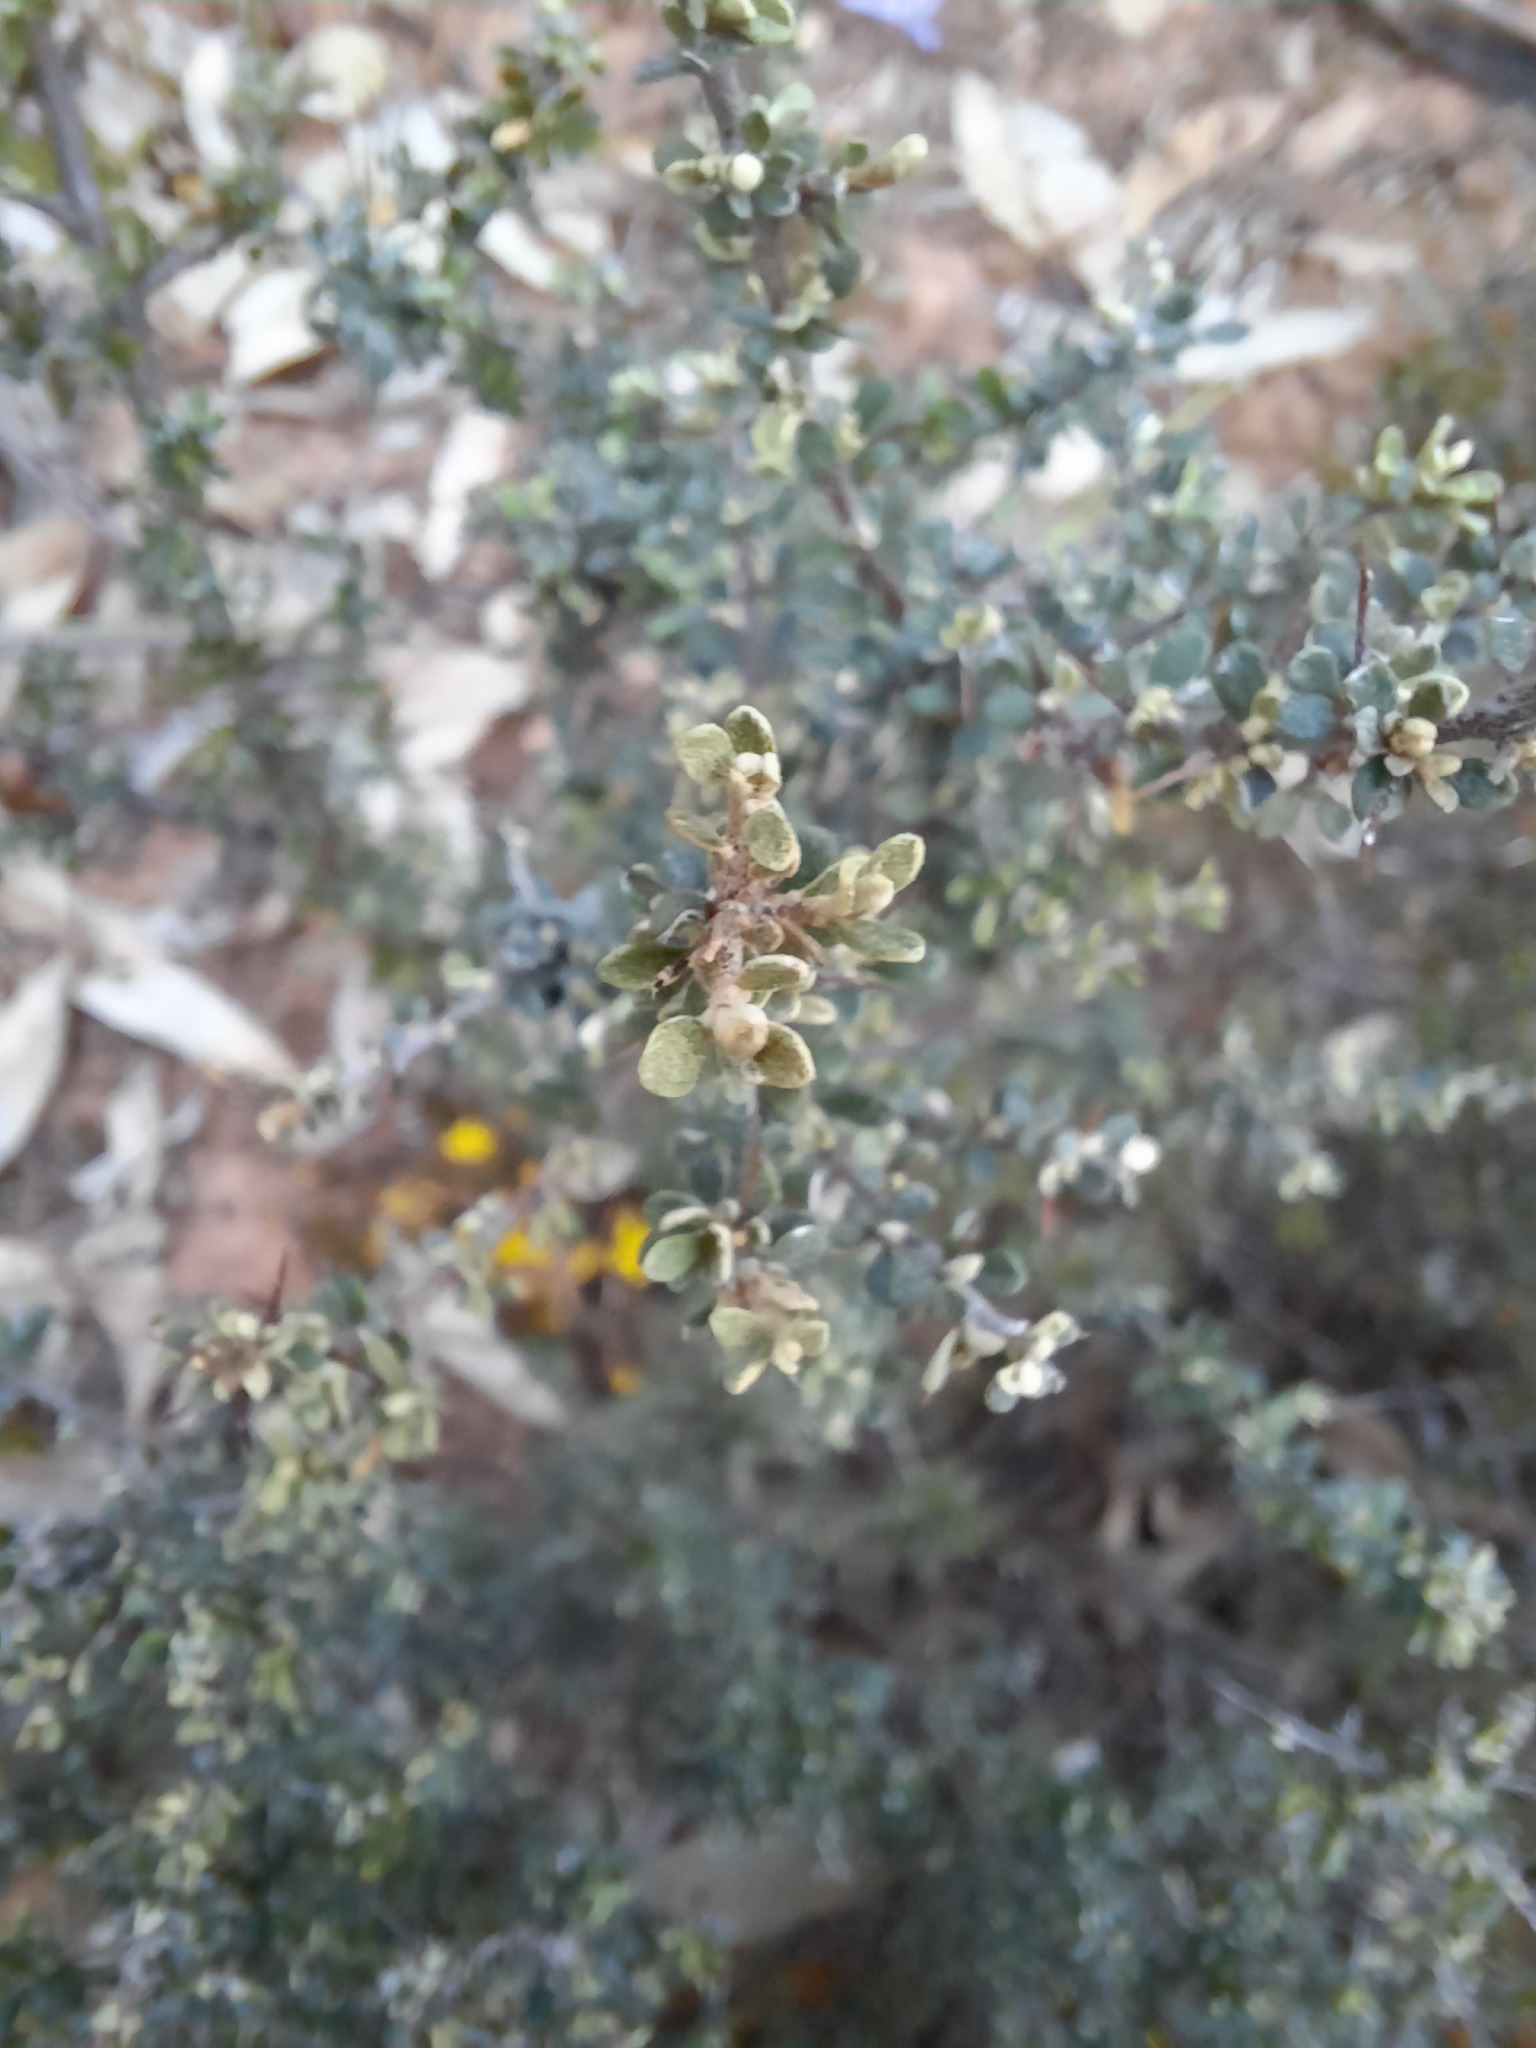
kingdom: Plantae
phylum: Tracheophyta
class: Magnoliopsida
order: Apiales
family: Pittosporaceae
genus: Bursaria
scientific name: Bursaria spinosa
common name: Australian blackthorn
